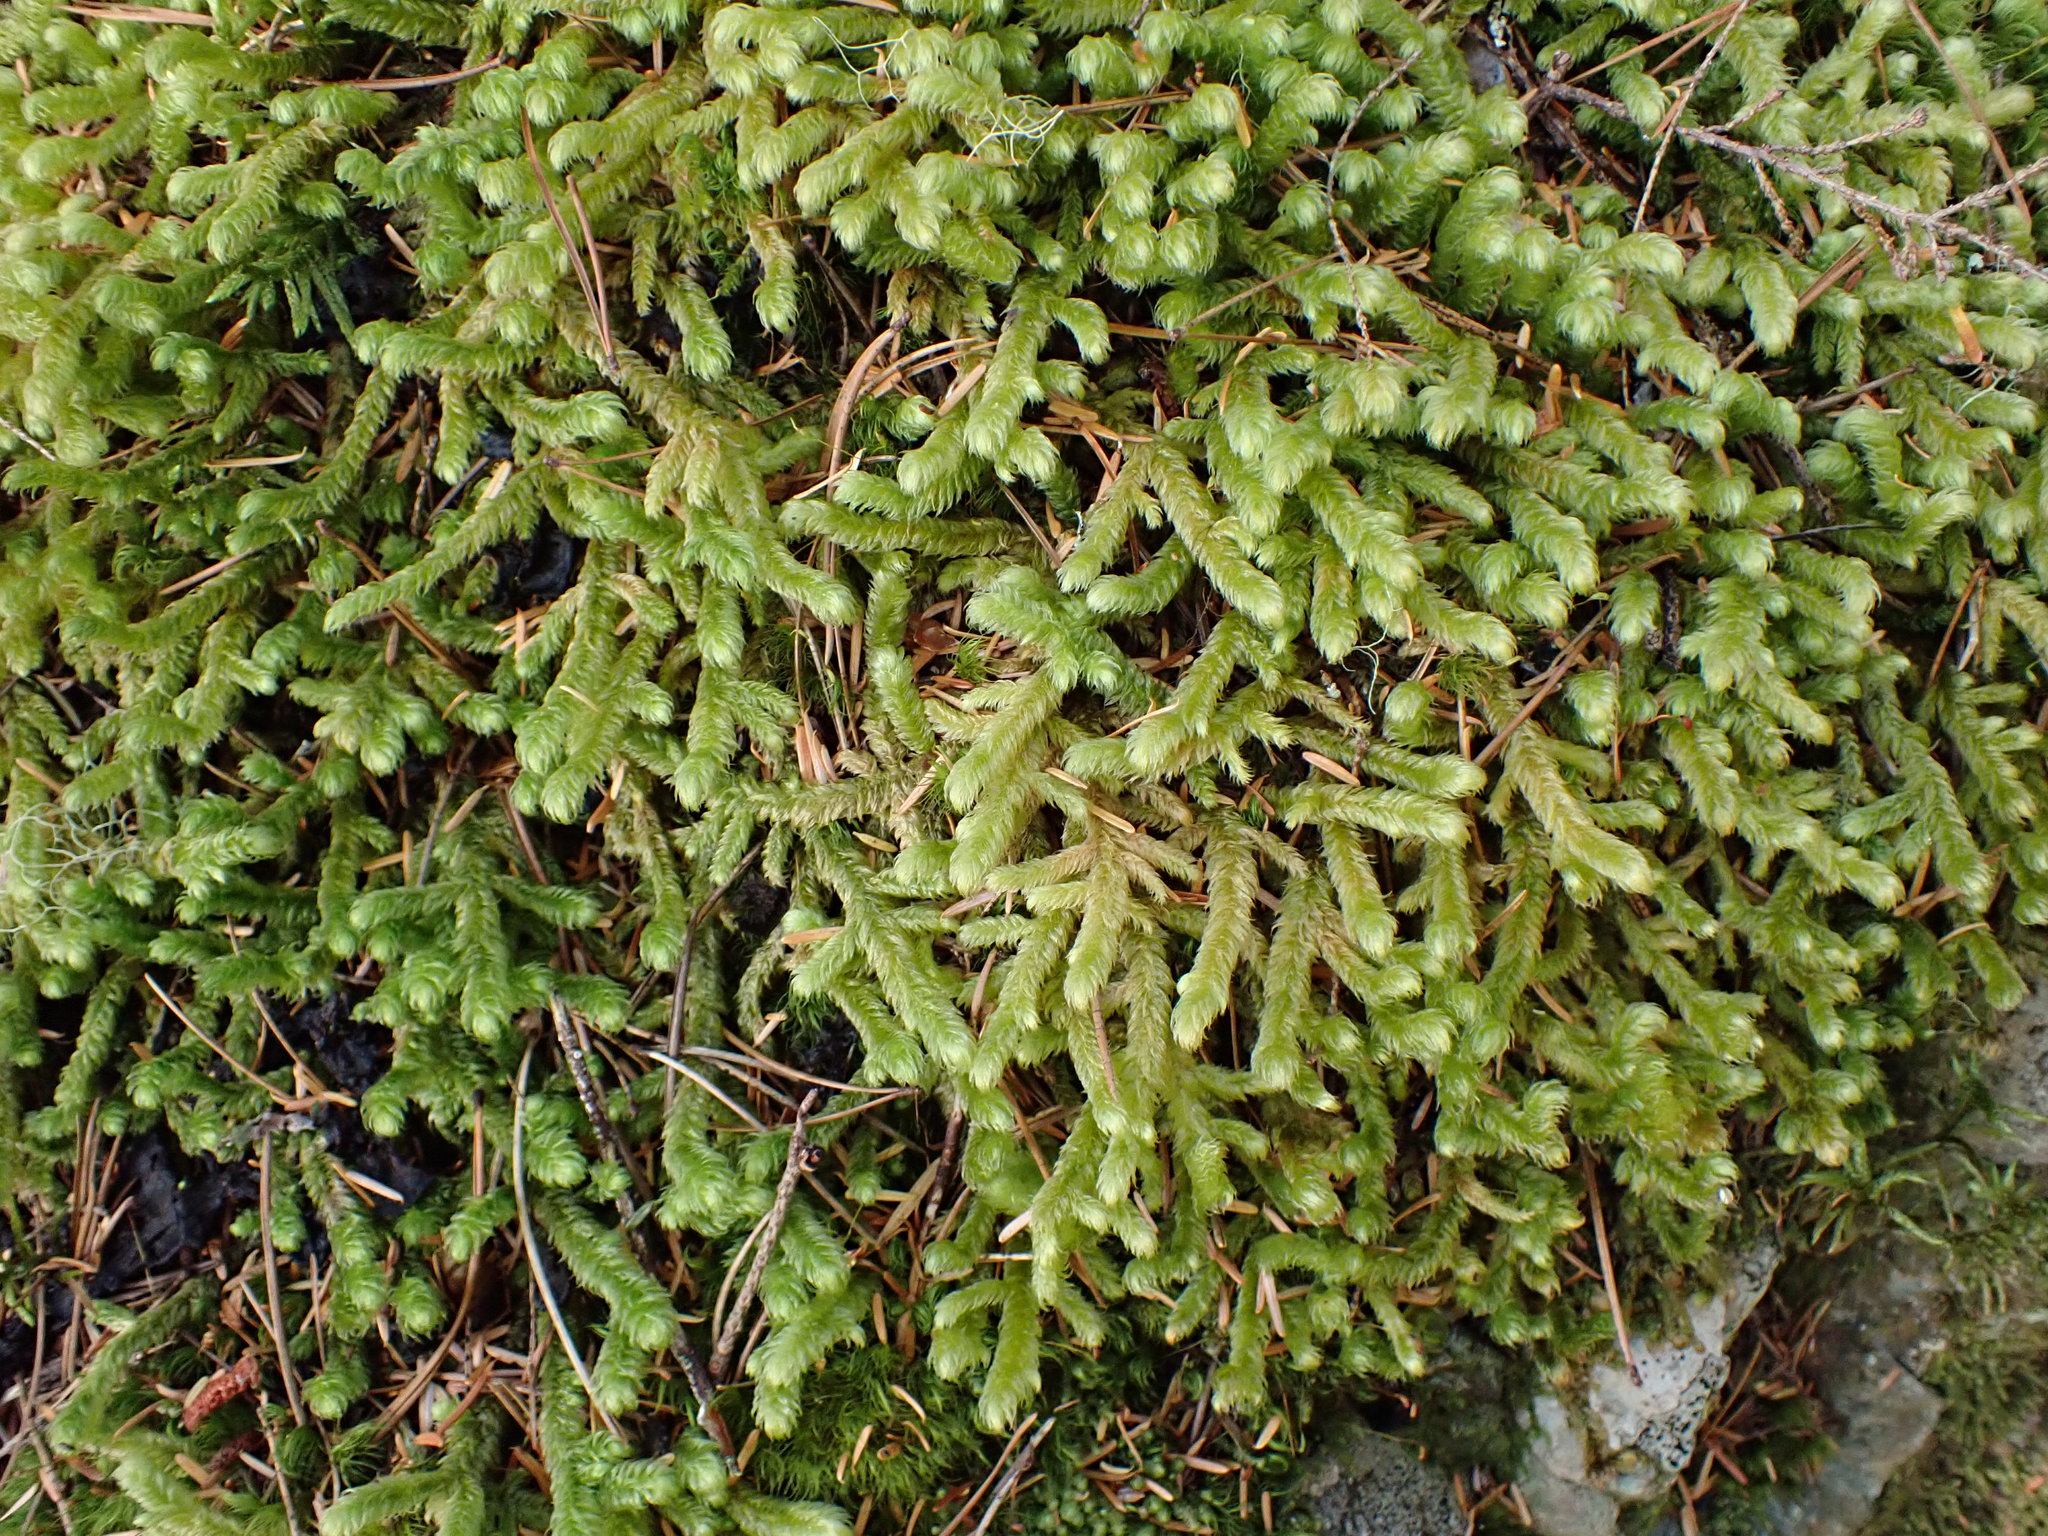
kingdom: Plantae
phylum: Bryophyta
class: Bryopsida
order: Hypnales
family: Hylocomiaceae
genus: Rhytidiopsis
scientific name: Rhytidiopsis robusta
